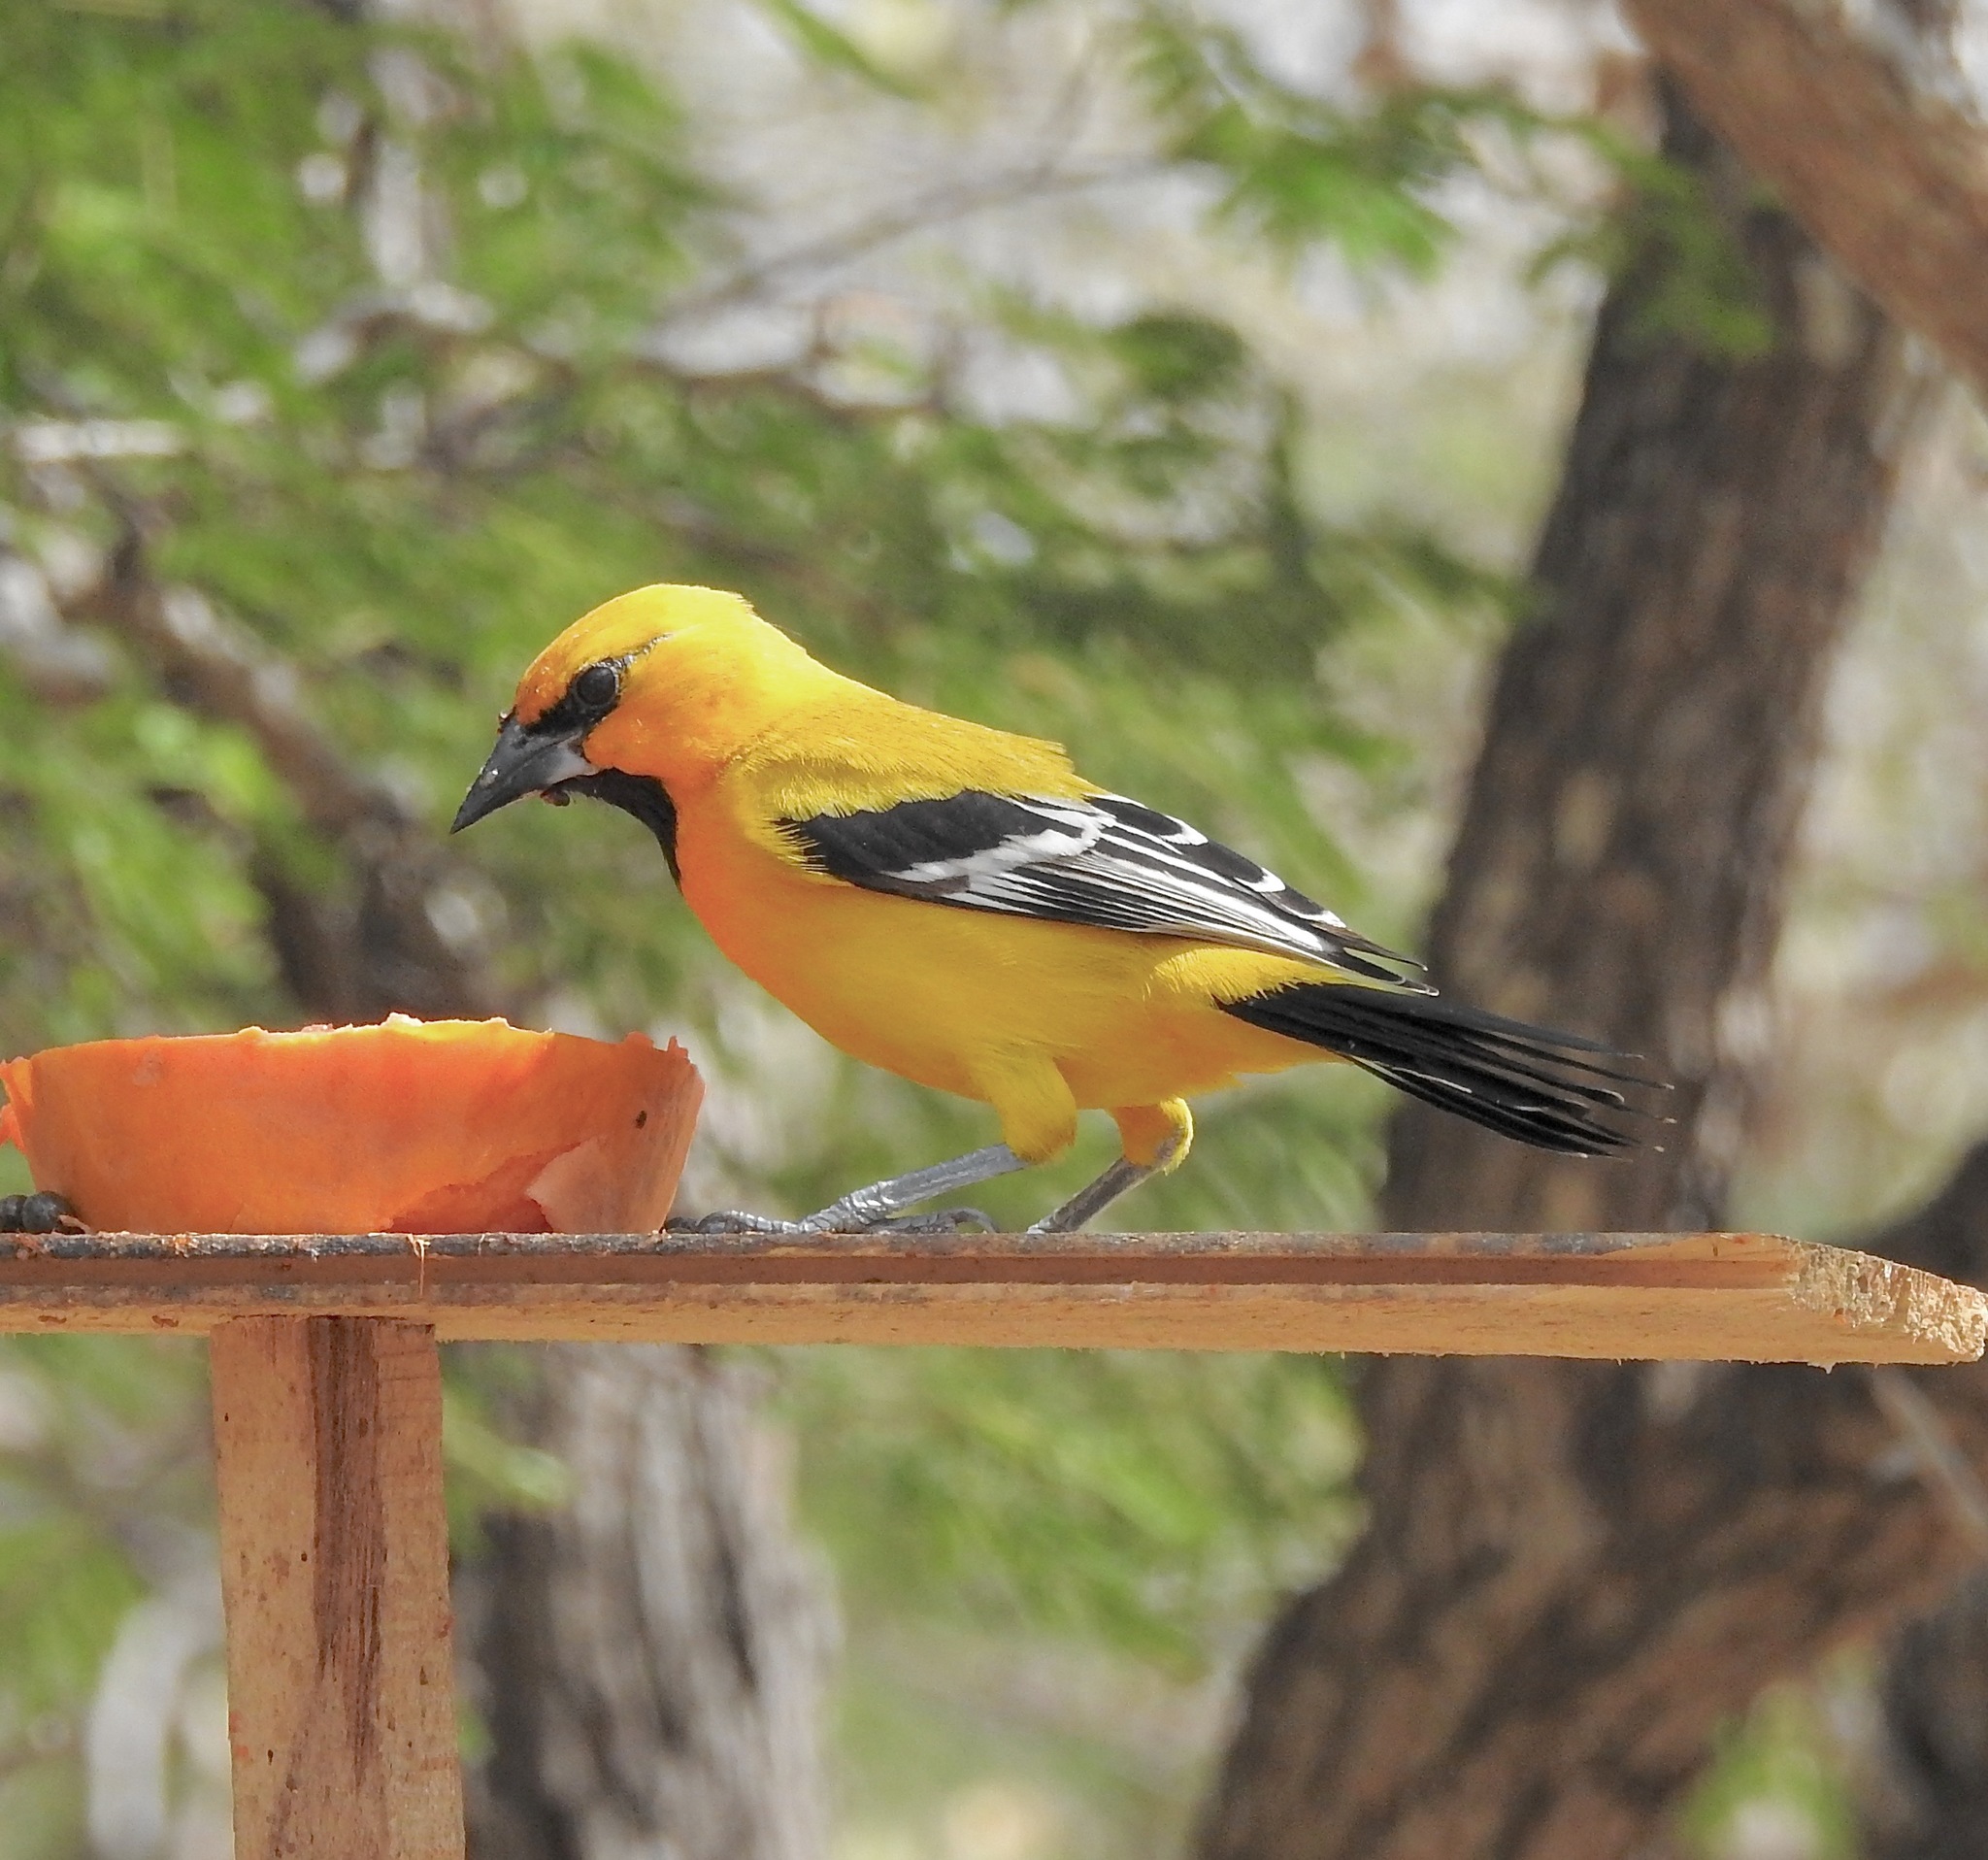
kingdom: Animalia
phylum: Chordata
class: Aves
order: Passeriformes
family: Icteridae
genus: Icterus
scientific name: Icterus nigrogularis
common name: Yellow oriole
